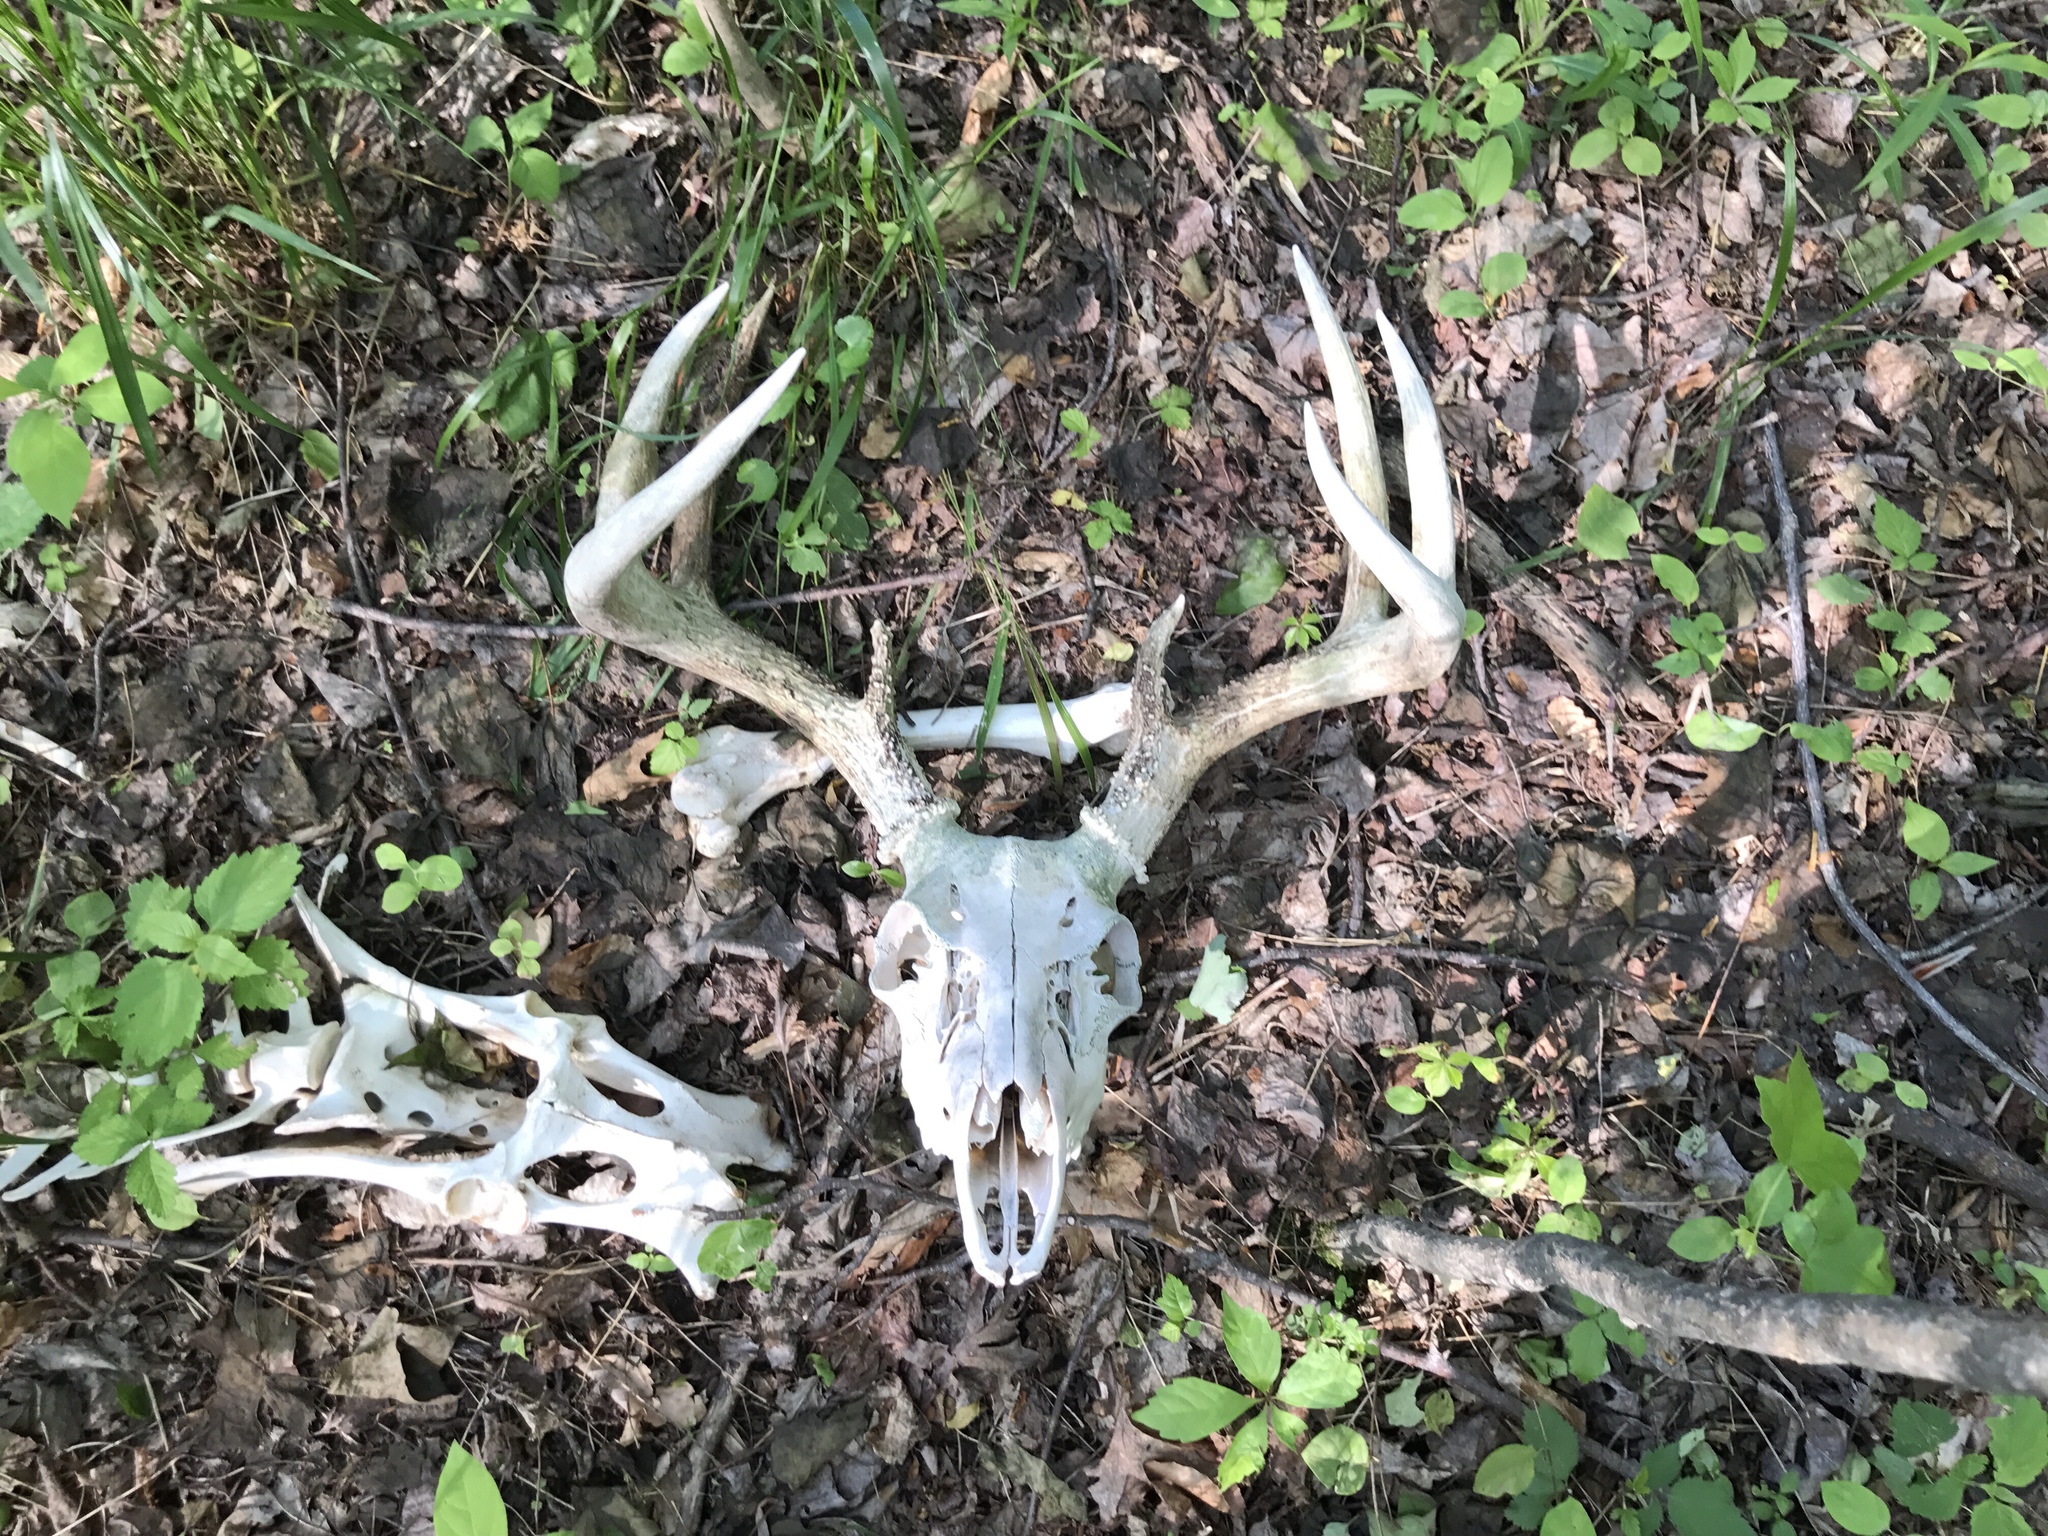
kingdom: Animalia
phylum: Chordata
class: Mammalia
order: Artiodactyla
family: Cervidae
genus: Odocoileus
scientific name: Odocoileus virginianus
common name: White-tailed deer
